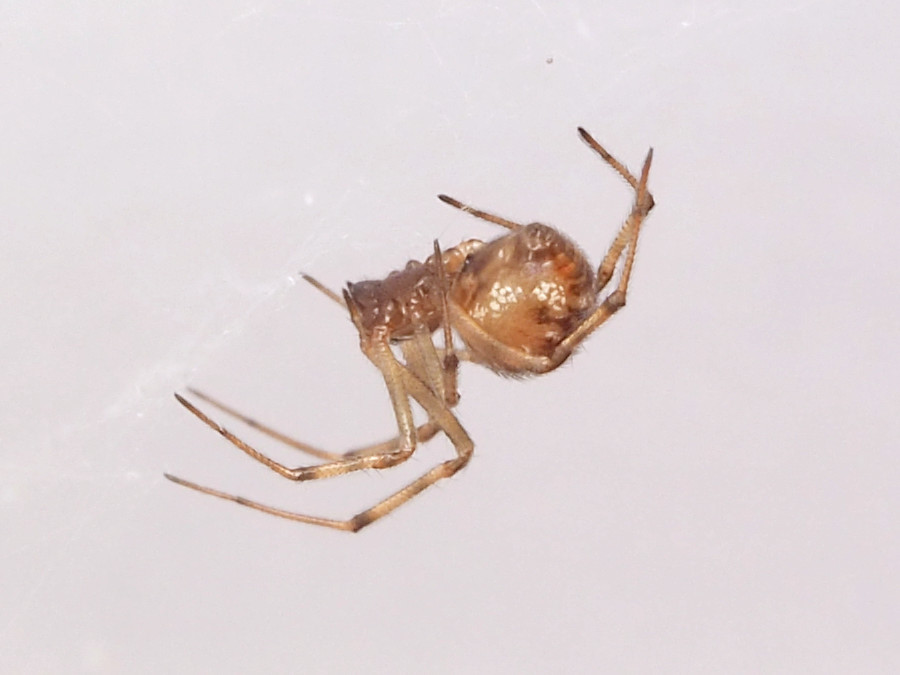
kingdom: Animalia
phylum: Arthropoda
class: Arachnida
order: Araneae
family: Theridiidae
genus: Steatoda
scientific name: Steatoda triangulosa
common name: Triangulate bud spider
